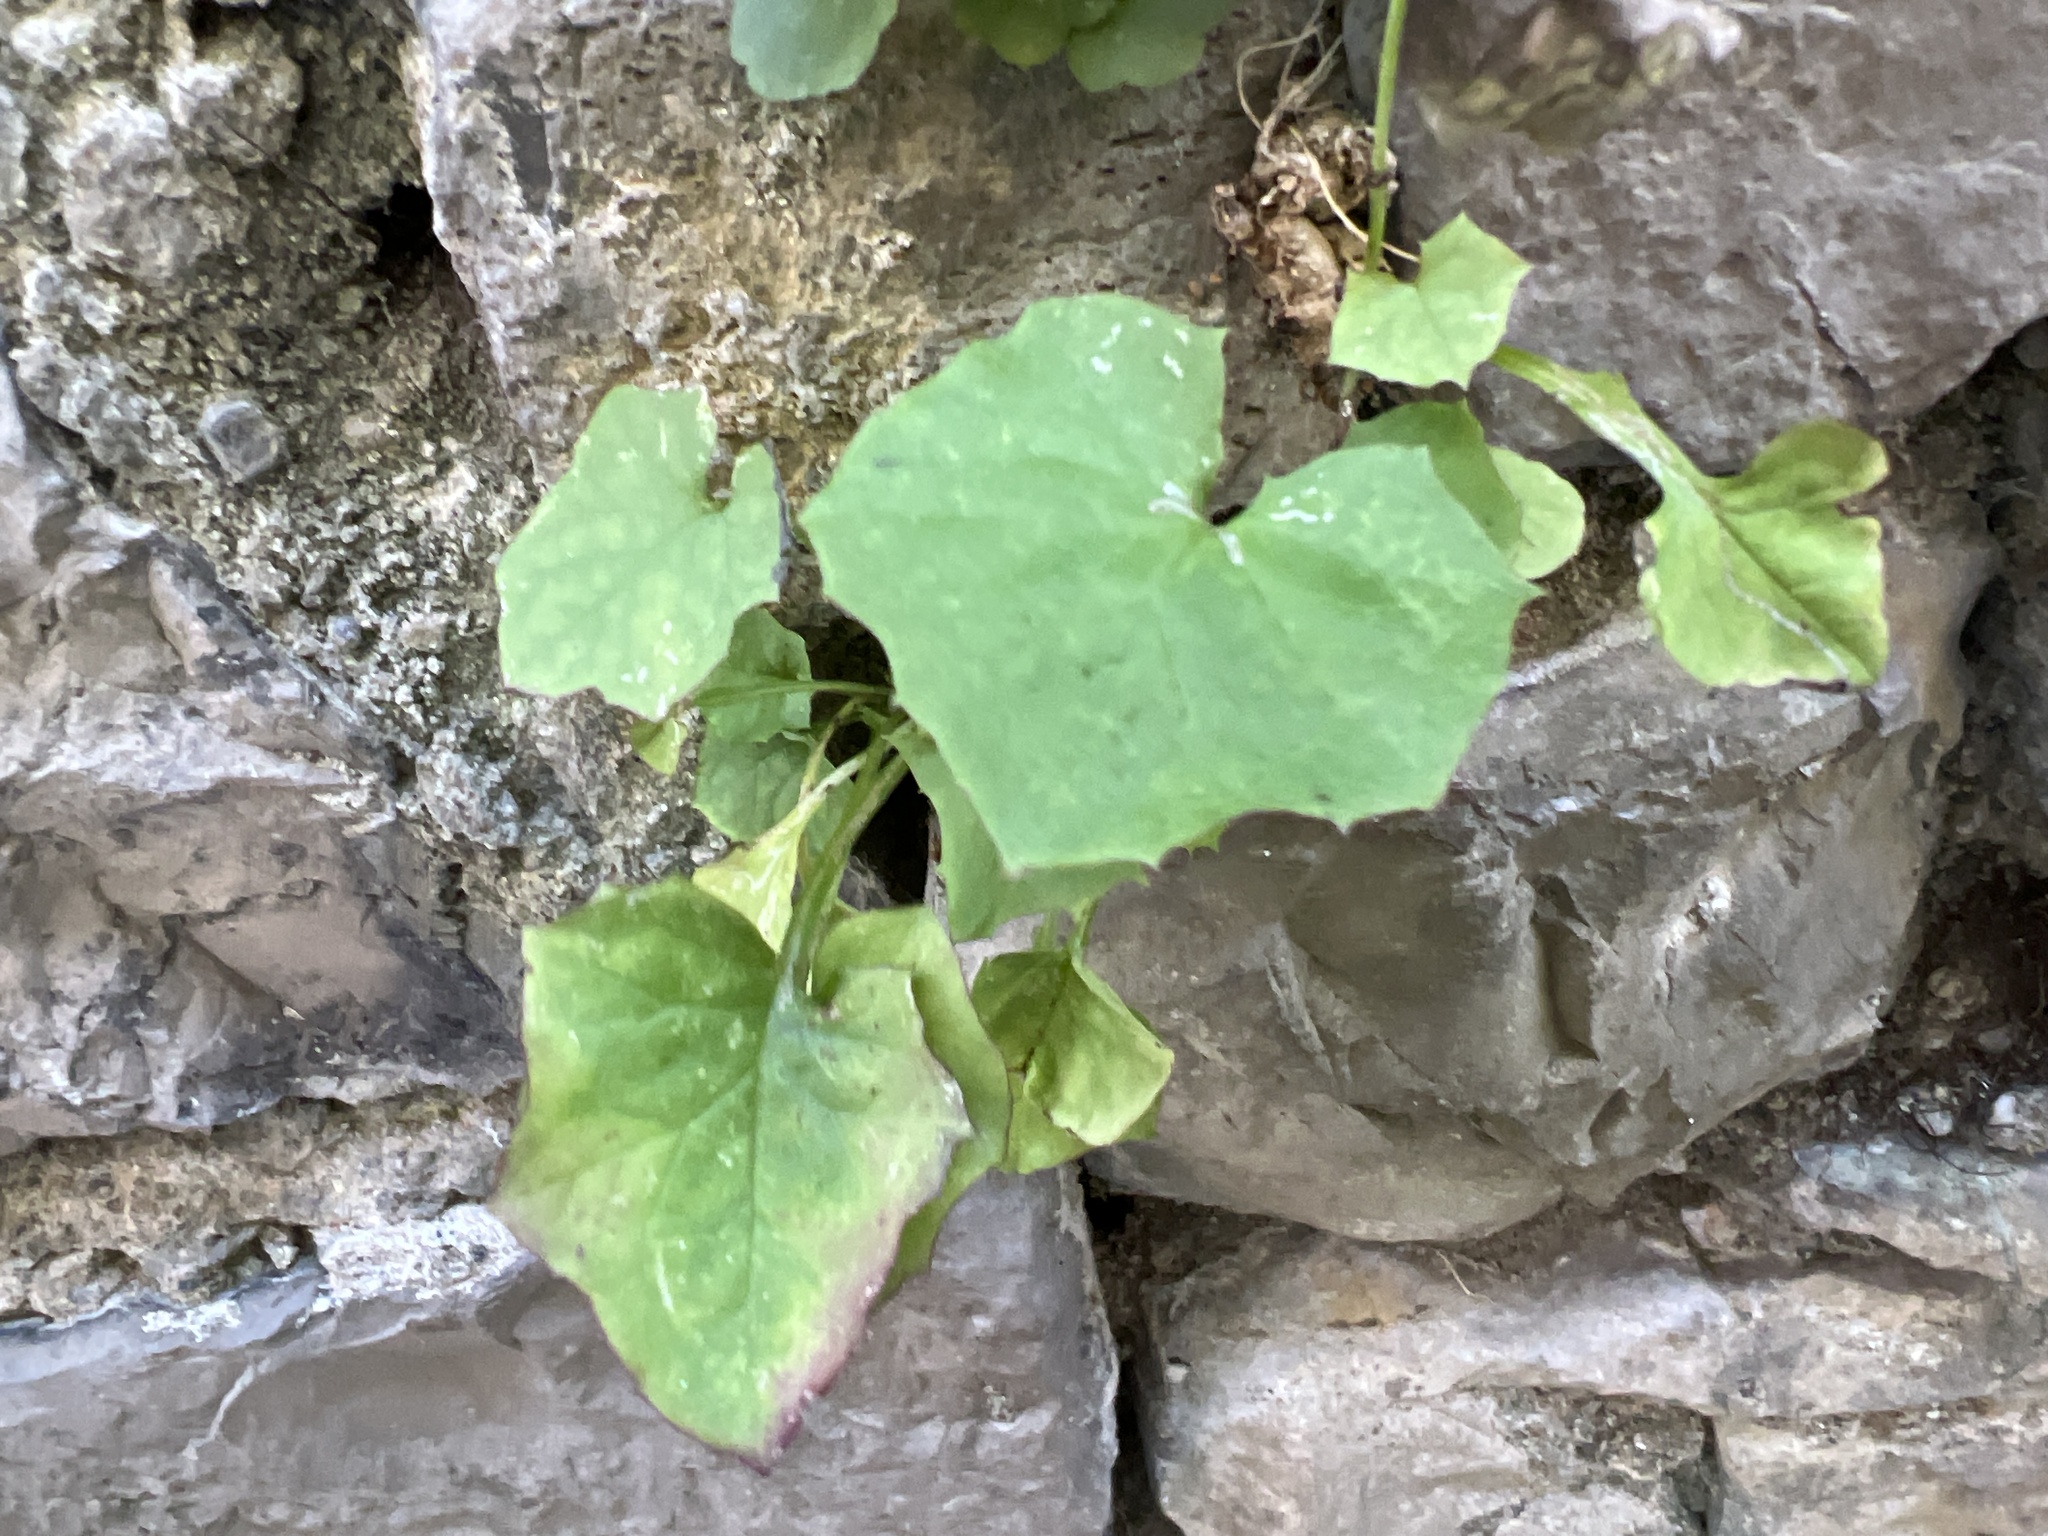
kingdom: Plantae
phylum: Tracheophyta
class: Magnoliopsida
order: Asterales
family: Asteraceae
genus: Mycelis
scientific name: Mycelis muralis
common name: Wall lettuce
